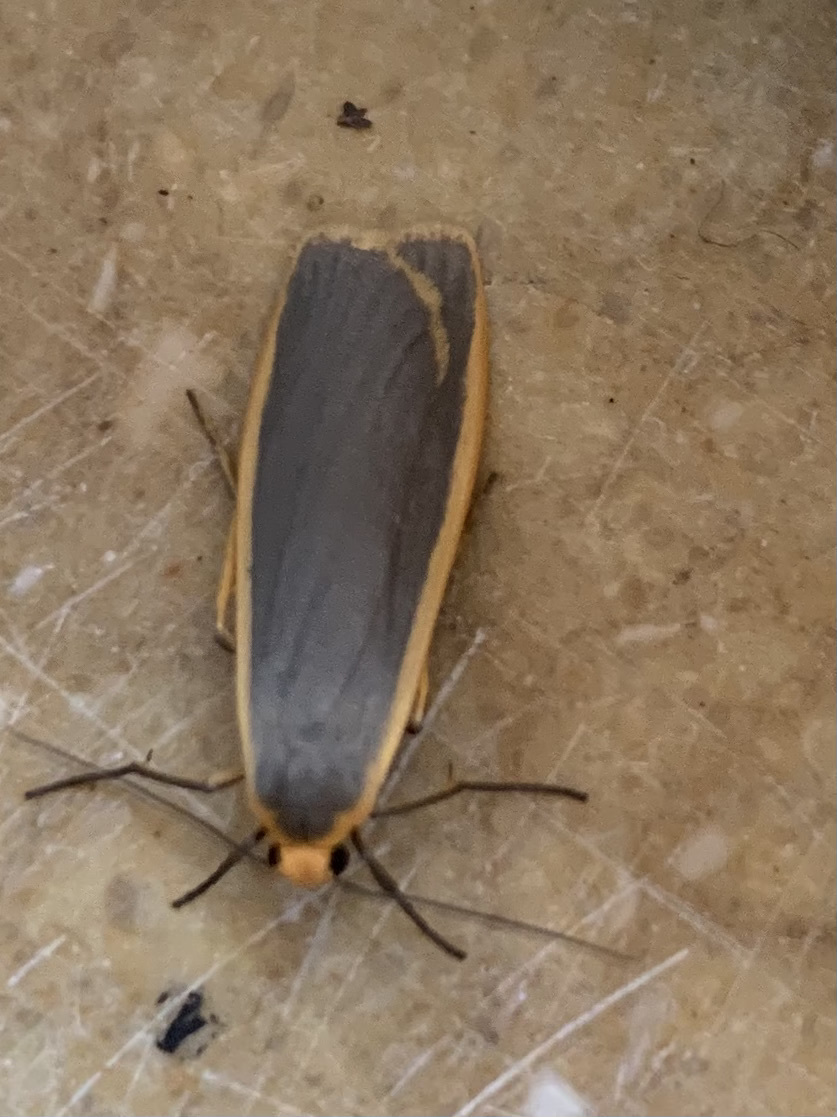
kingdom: Animalia
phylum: Arthropoda
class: Insecta
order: Lepidoptera
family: Erebidae
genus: Nyea
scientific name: Nyea lurideola
